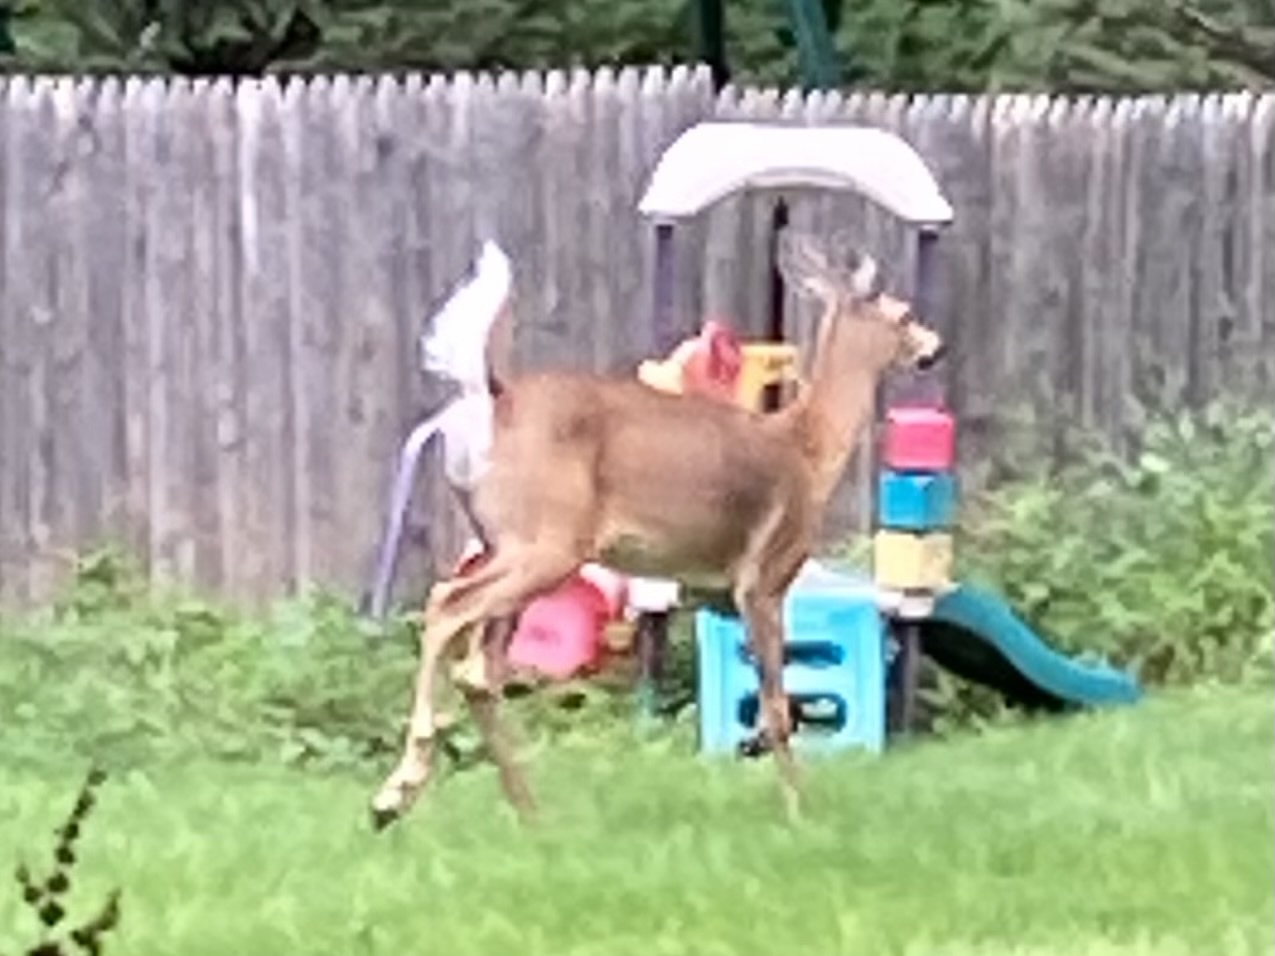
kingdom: Animalia
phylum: Chordata
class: Mammalia
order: Artiodactyla
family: Cervidae
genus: Odocoileus
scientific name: Odocoileus virginianus
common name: White-tailed deer
